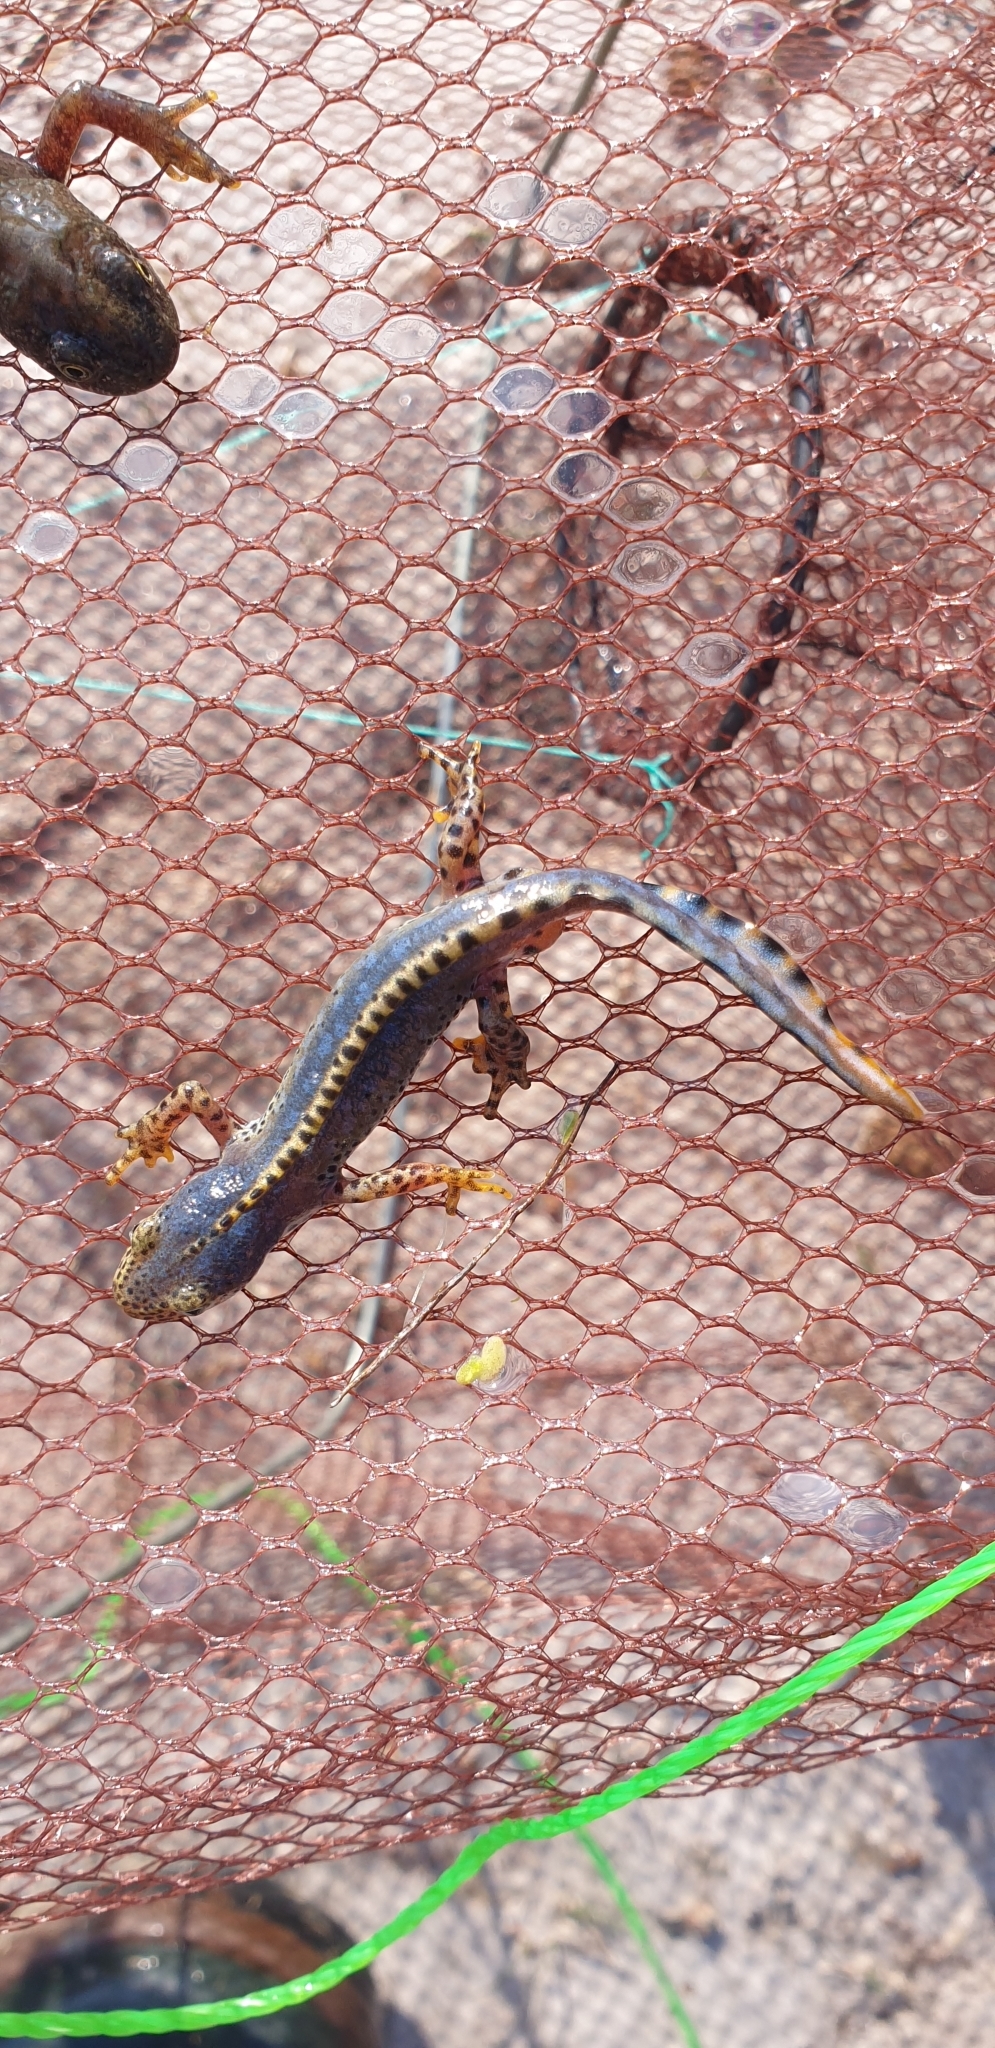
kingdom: Animalia
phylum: Chordata
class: Amphibia
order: Caudata
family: Salamandridae
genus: Ichthyosaura
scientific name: Ichthyosaura alpestris
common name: Alpine newt
